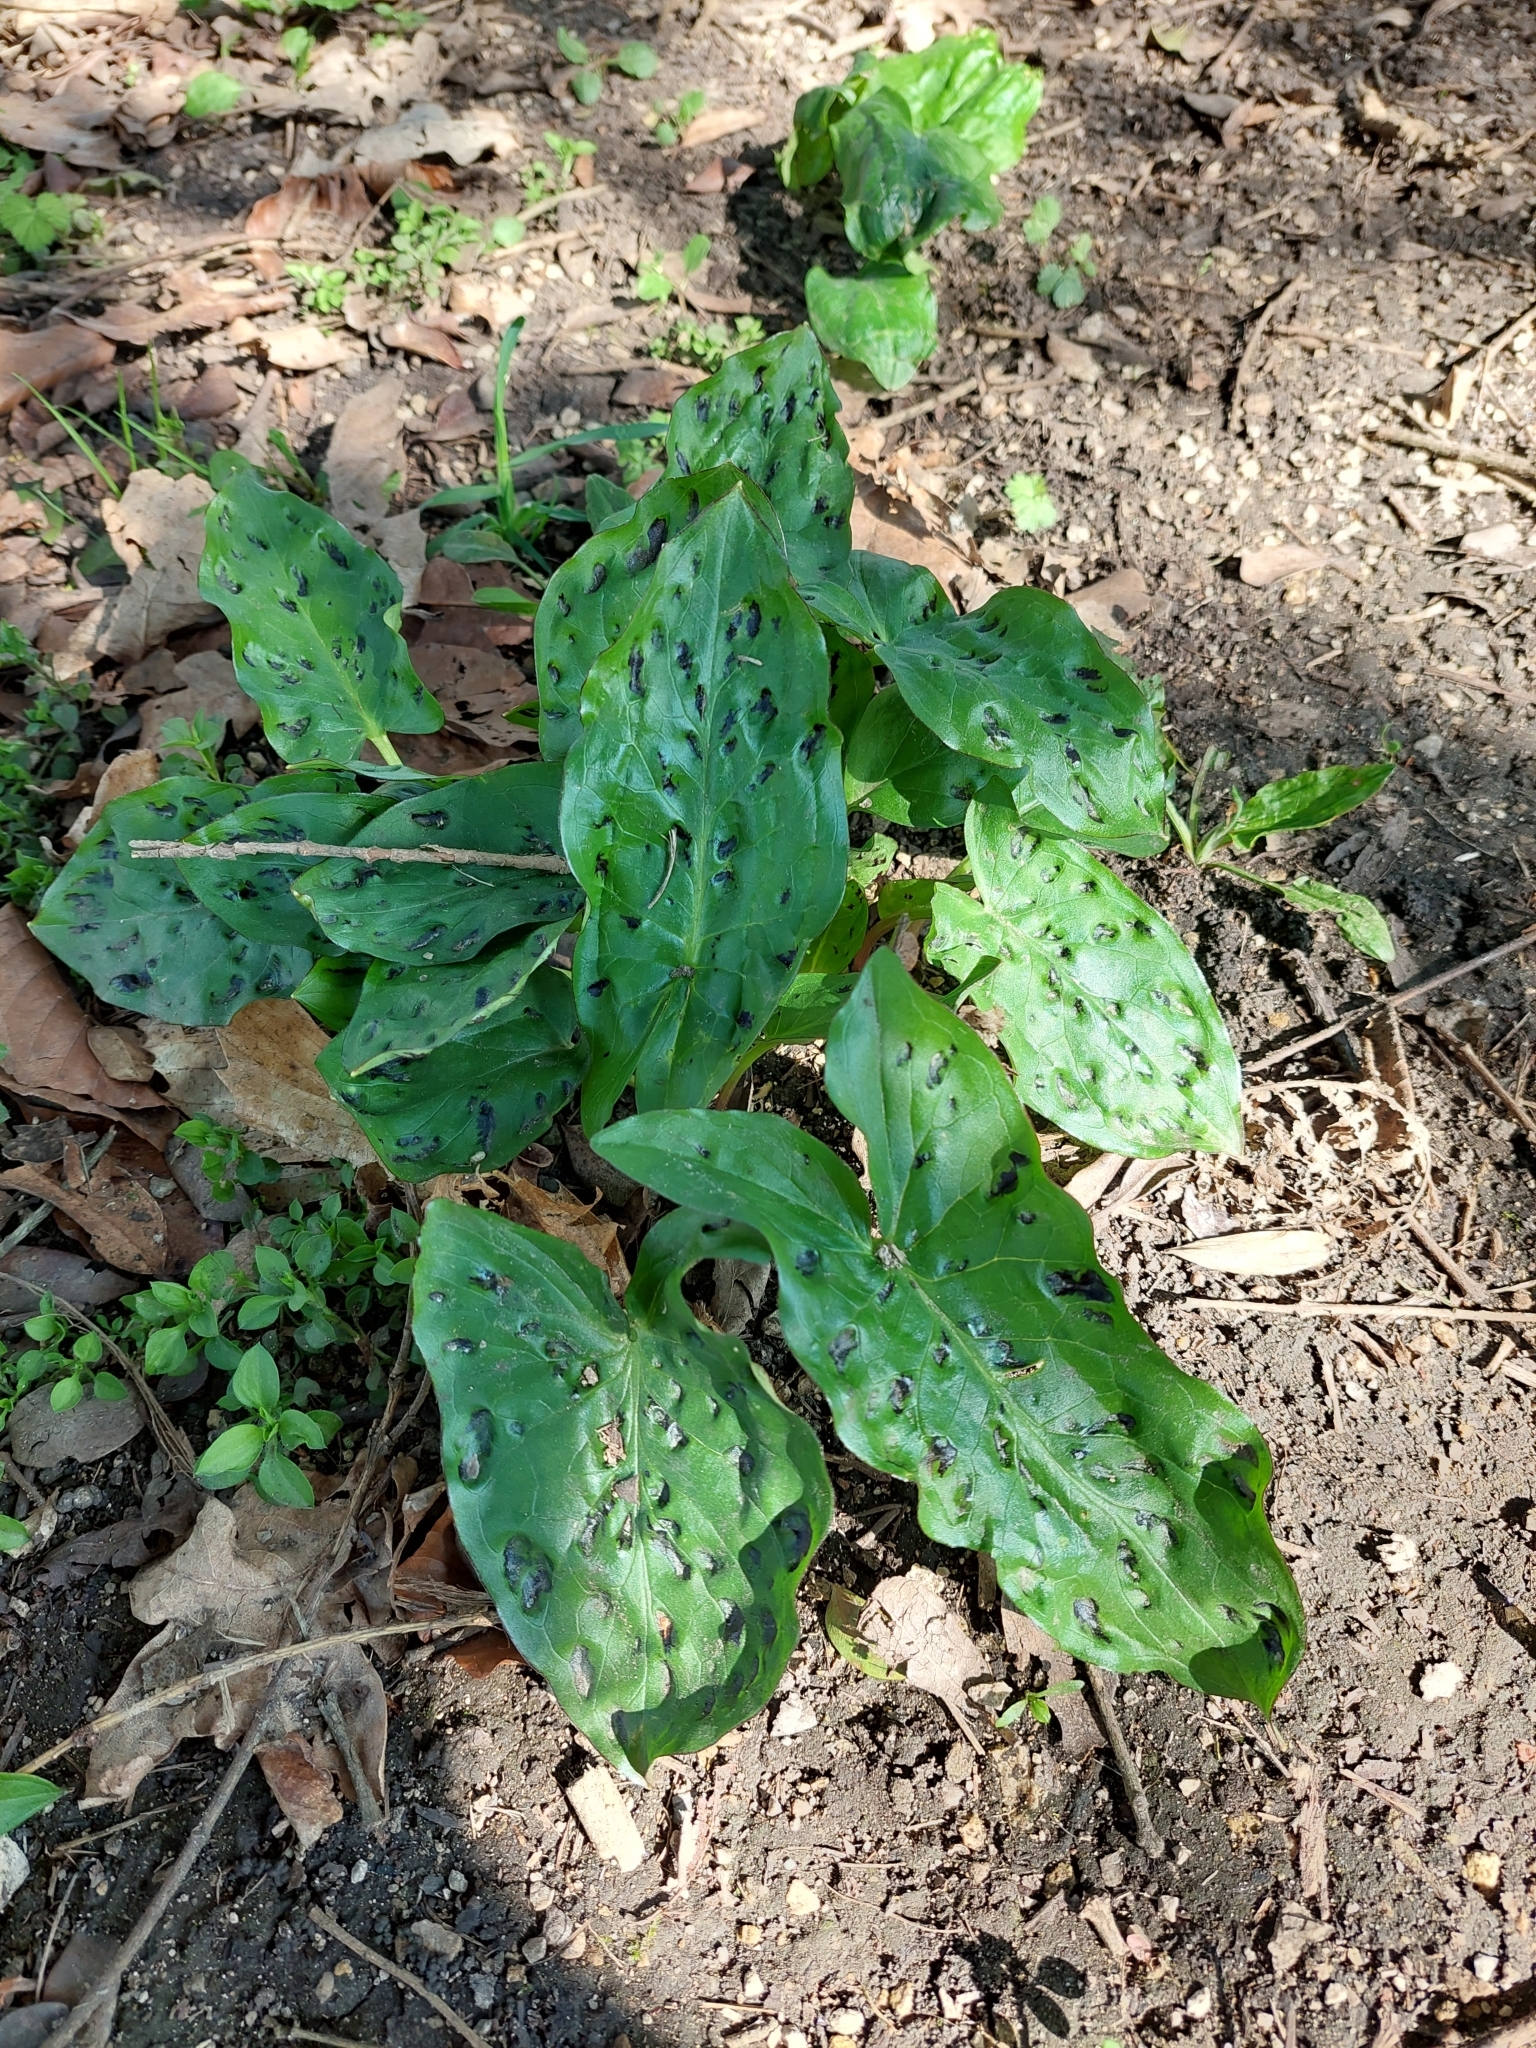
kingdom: Plantae
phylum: Tracheophyta
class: Liliopsida
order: Alismatales
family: Araceae
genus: Arum
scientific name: Arum maculatum
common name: Lords-and-ladies
